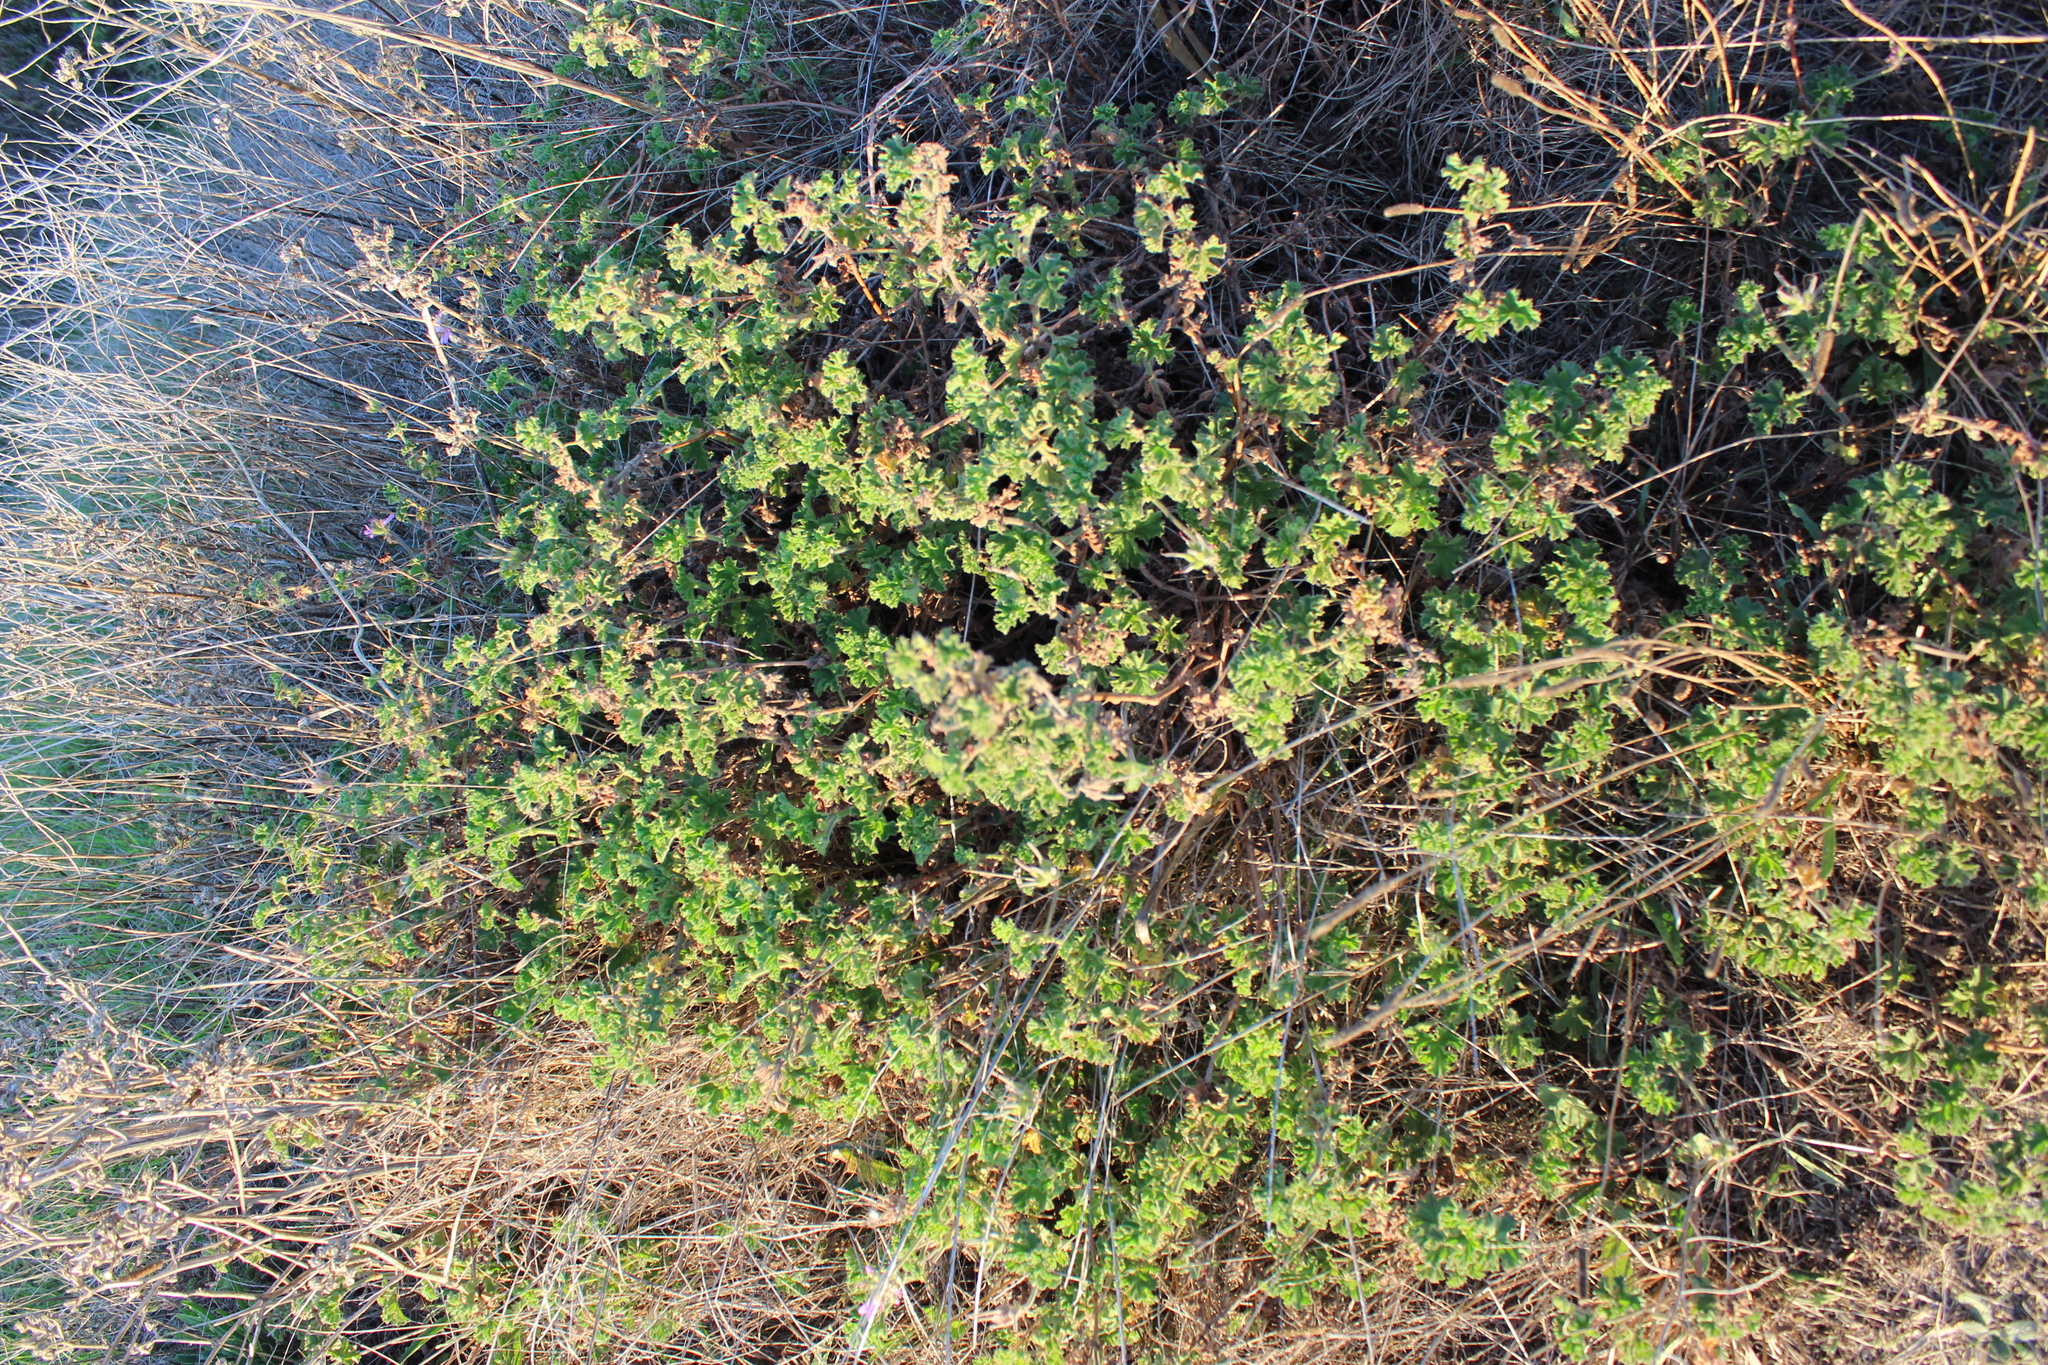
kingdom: Plantae
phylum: Tracheophyta
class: Magnoliopsida
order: Geraniales
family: Geraniaceae
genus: Pelargonium
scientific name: Pelargonium capitatum
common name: Rose scented geranium
